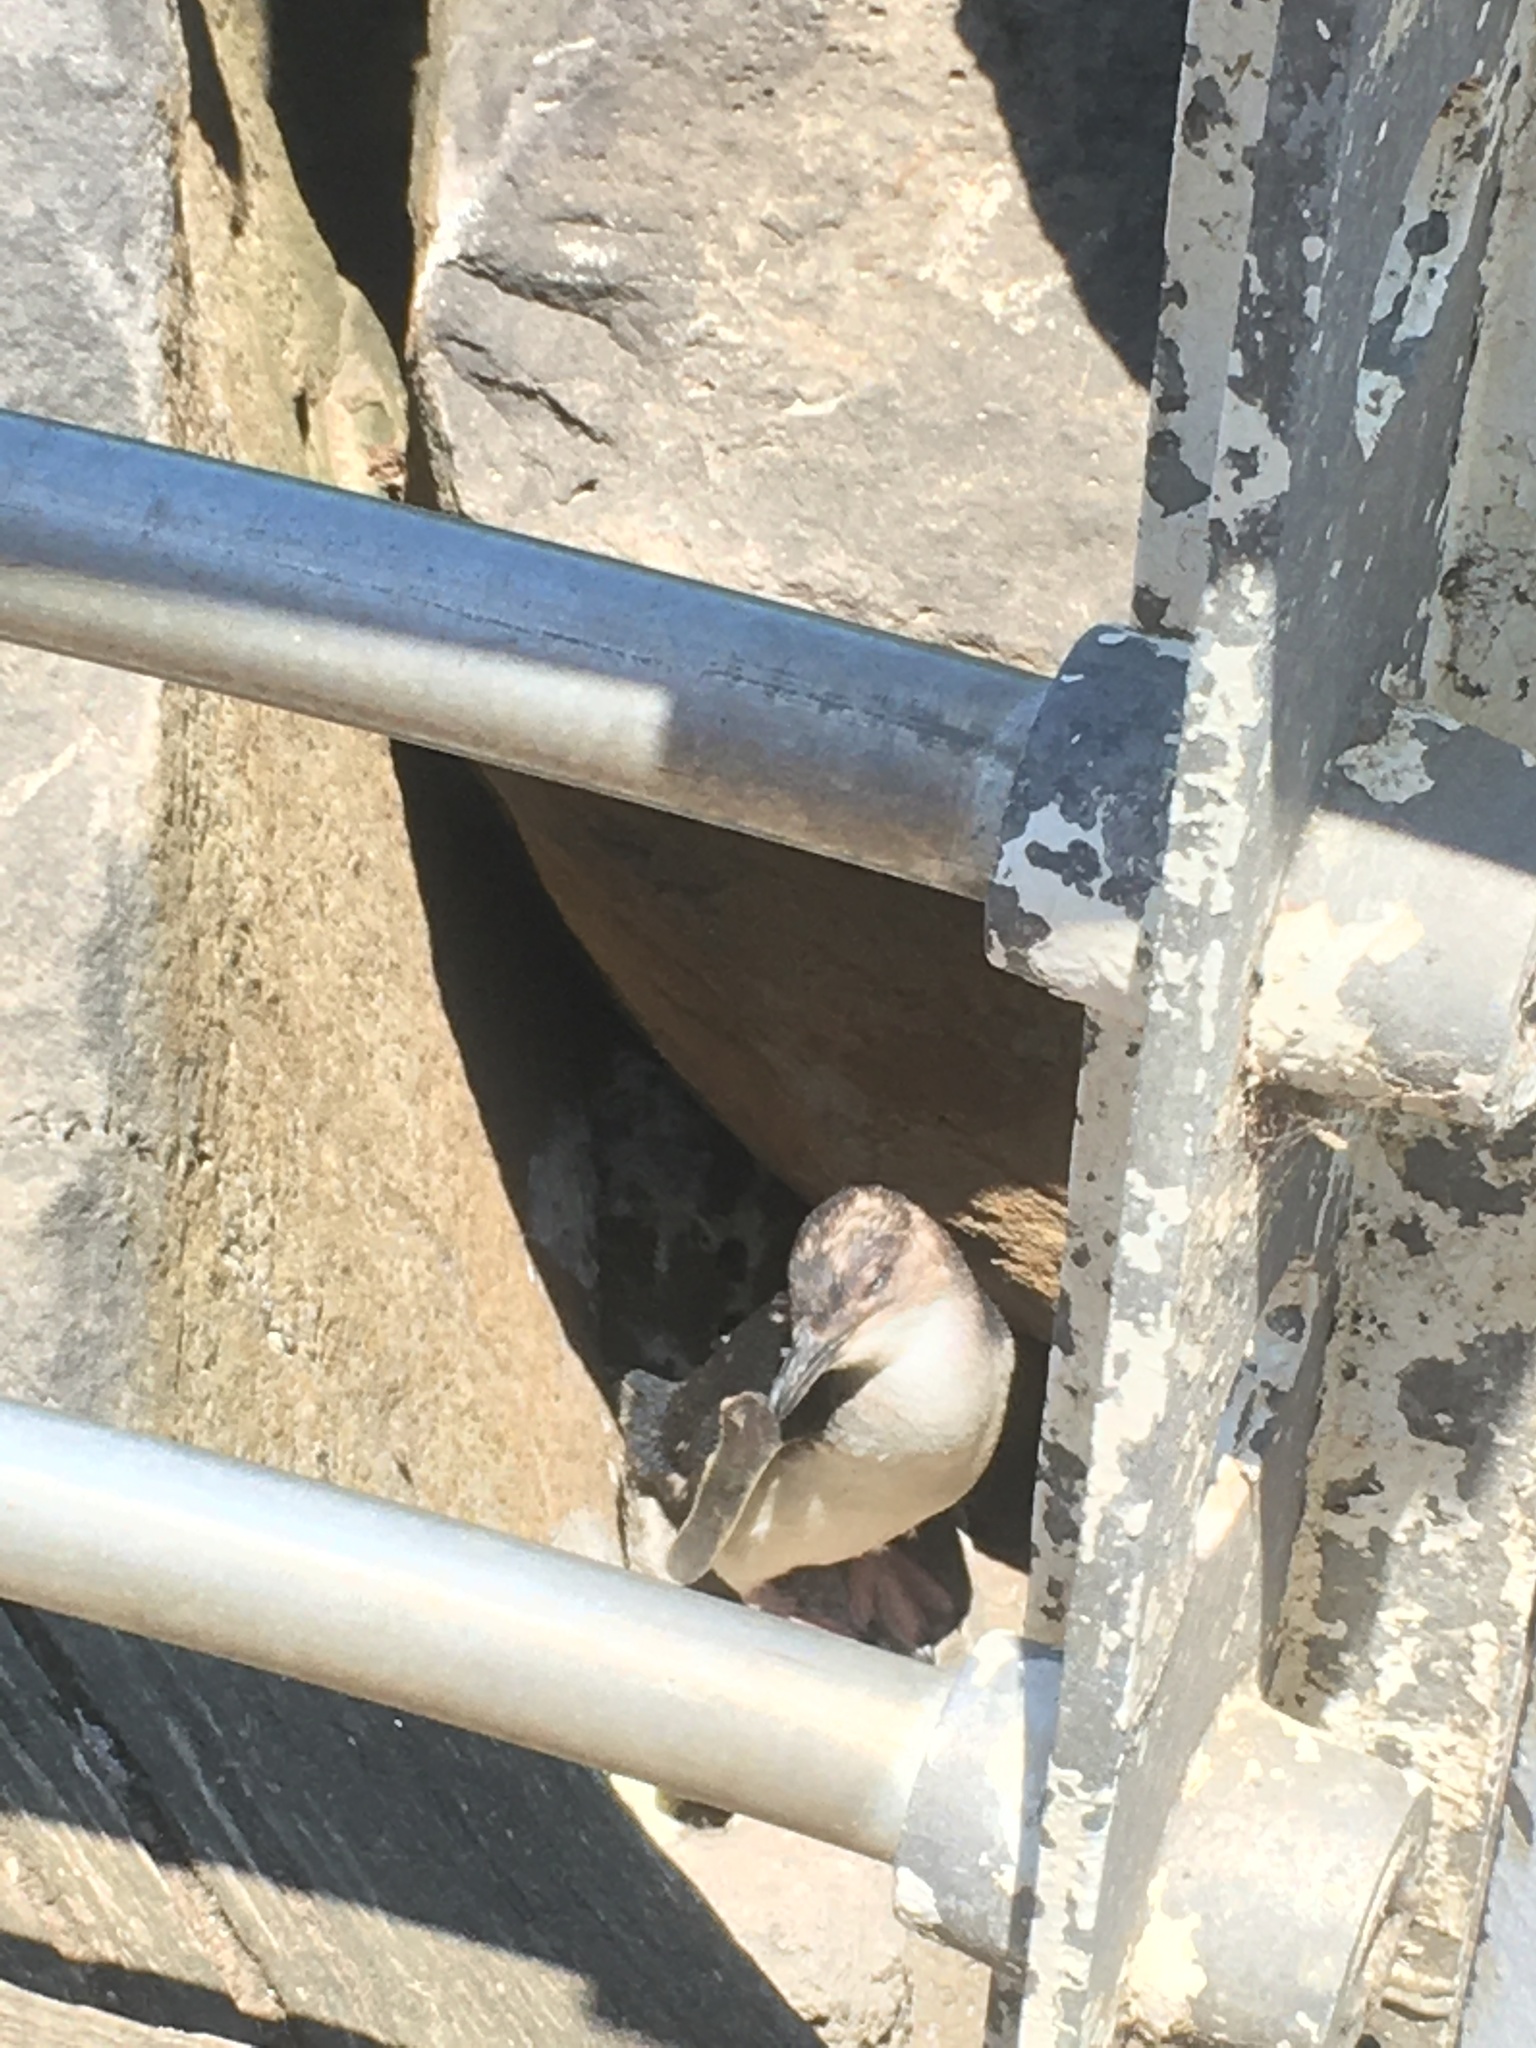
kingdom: Animalia
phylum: Chordata
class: Aves
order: Sphenisciformes
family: Spheniscidae
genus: Eudyptula
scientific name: Eudyptula minor
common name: Little penguin
